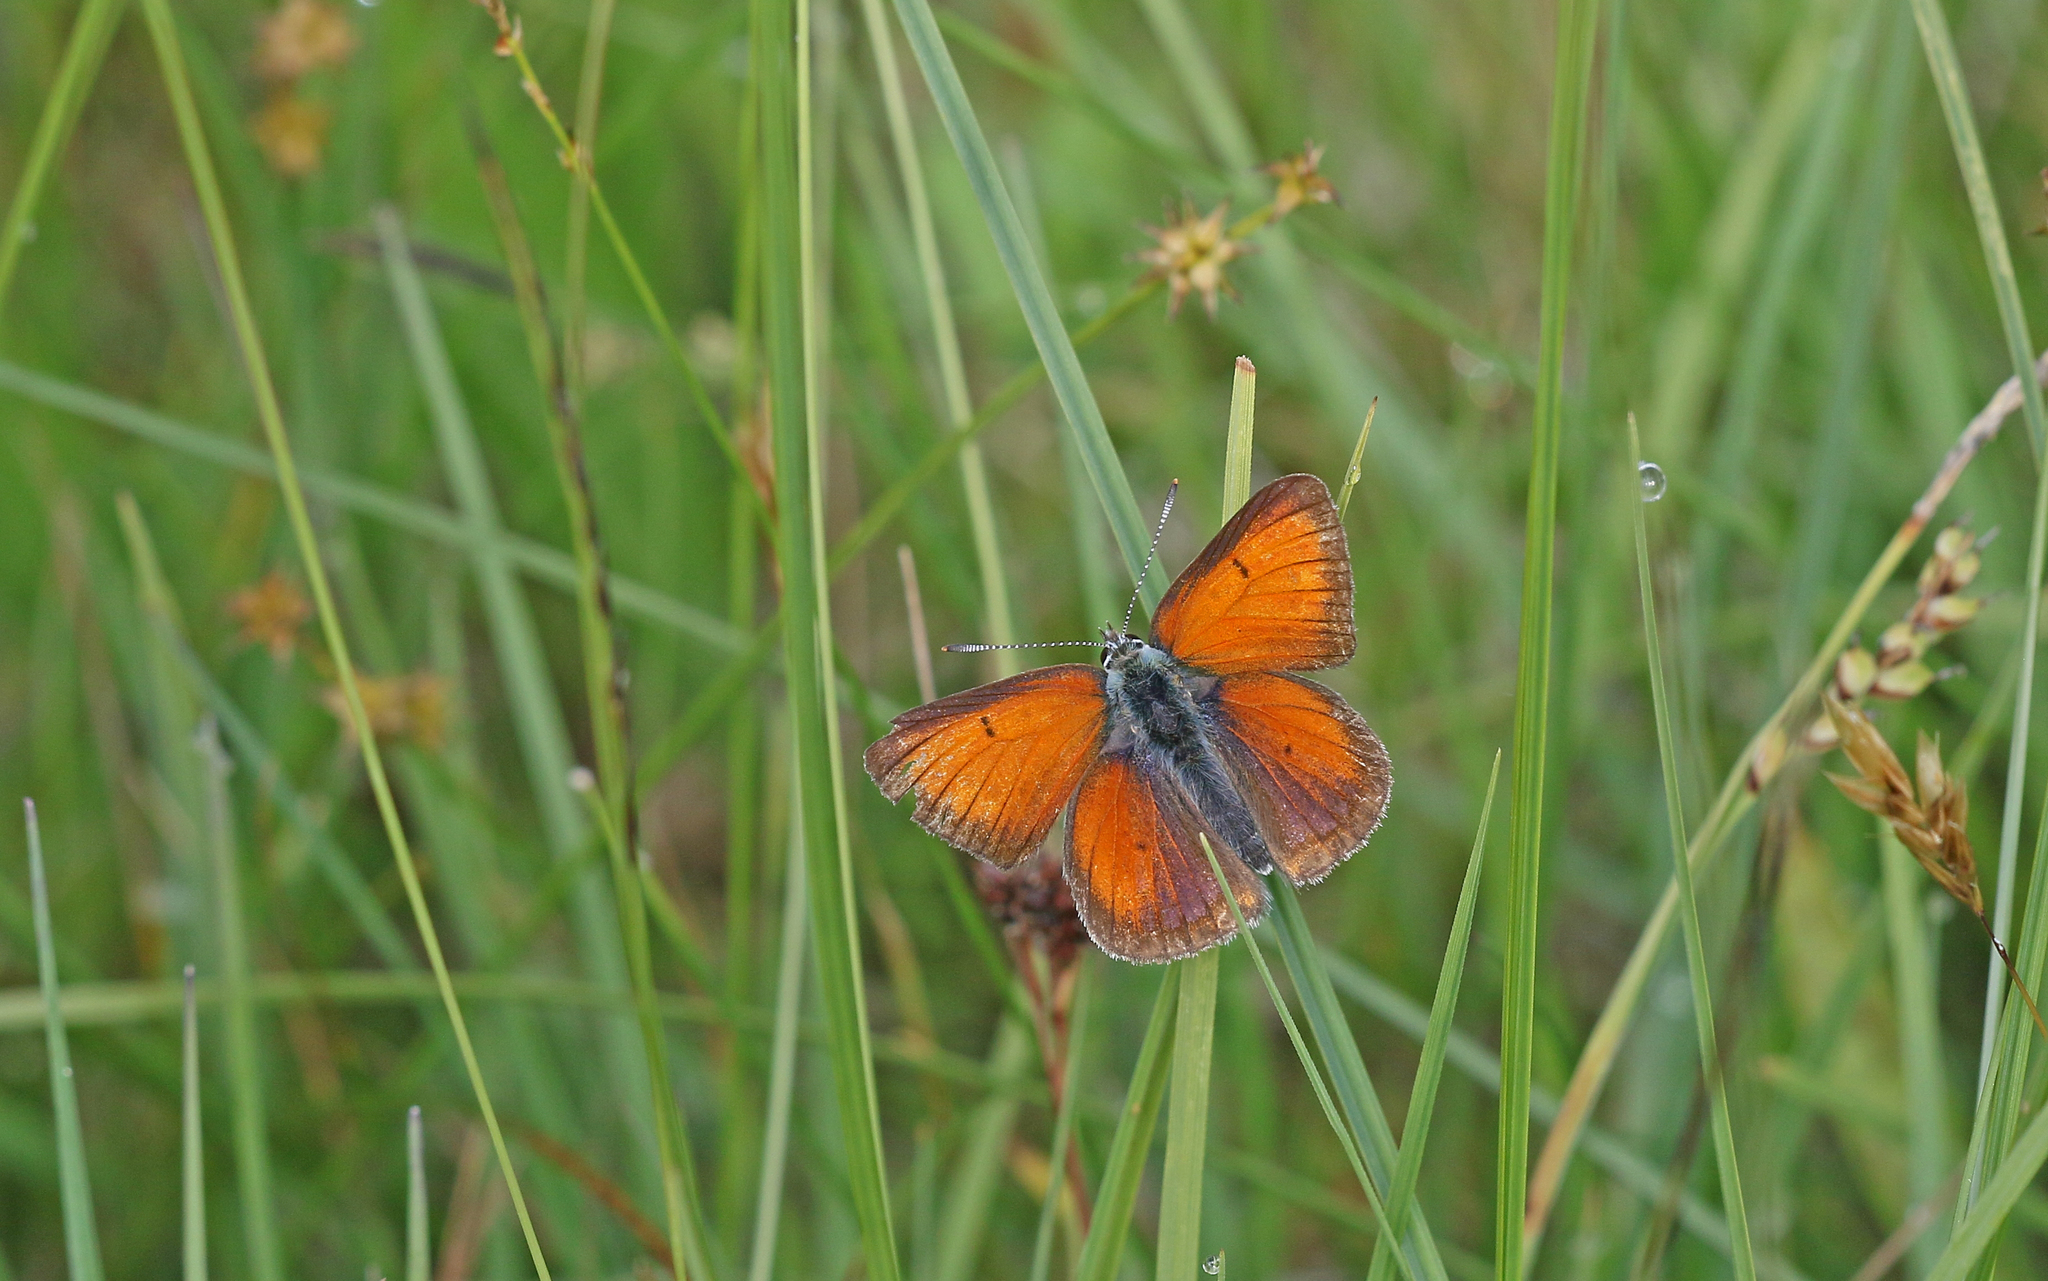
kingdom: Animalia
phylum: Arthropoda
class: Insecta
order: Lepidoptera
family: Lycaenidae
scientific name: Lycaenidae
